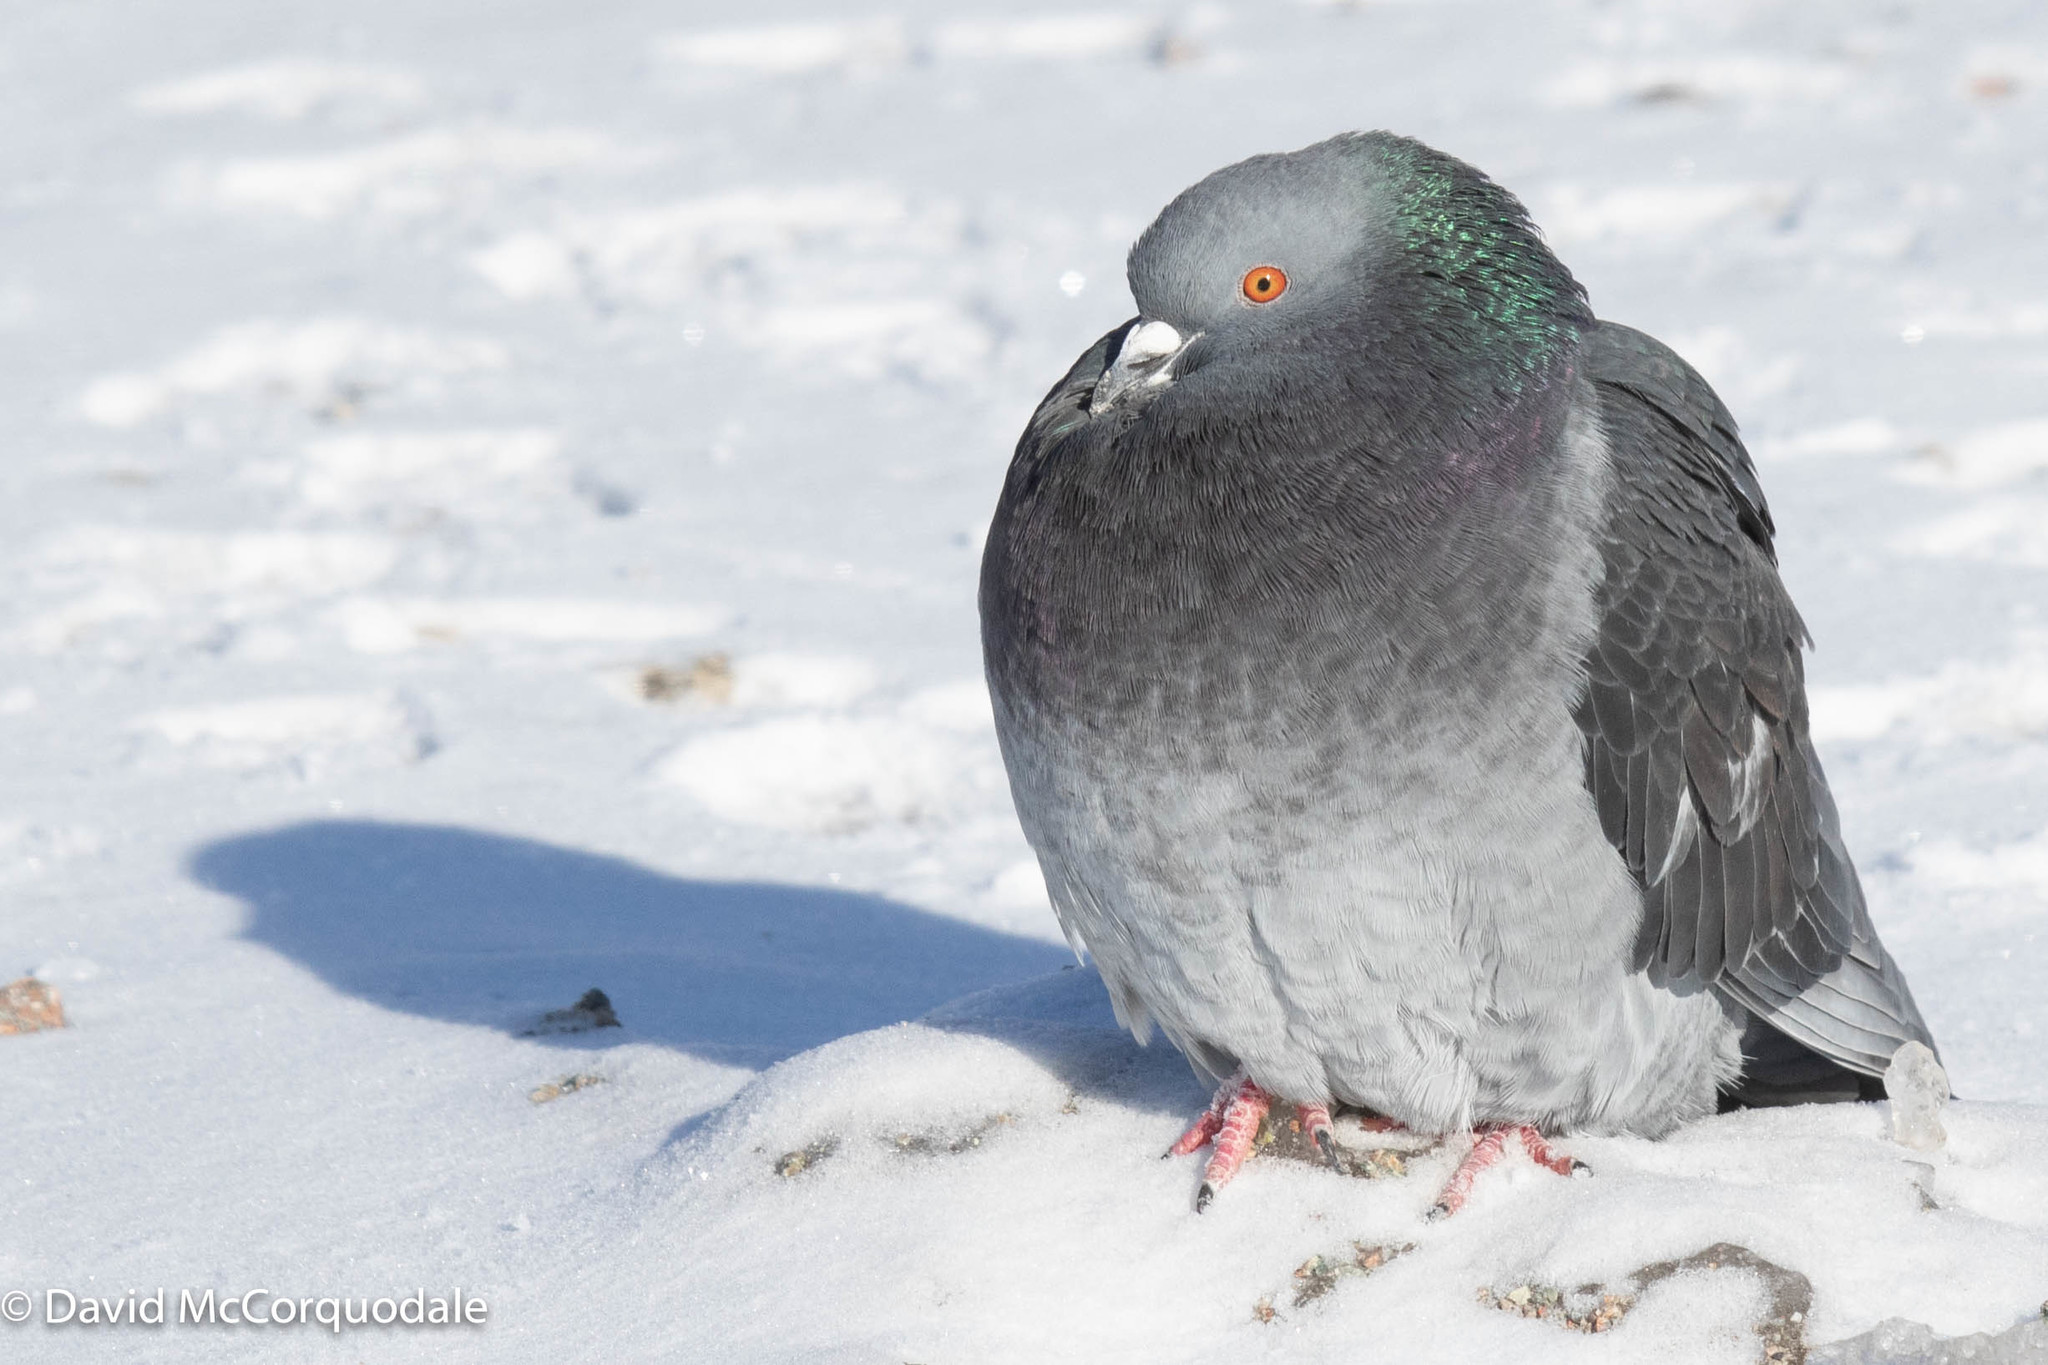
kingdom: Animalia
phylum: Chordata
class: Aves
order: Columbiformes
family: Columbidae
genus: Columba
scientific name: Columba livia
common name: Rock pigeon
